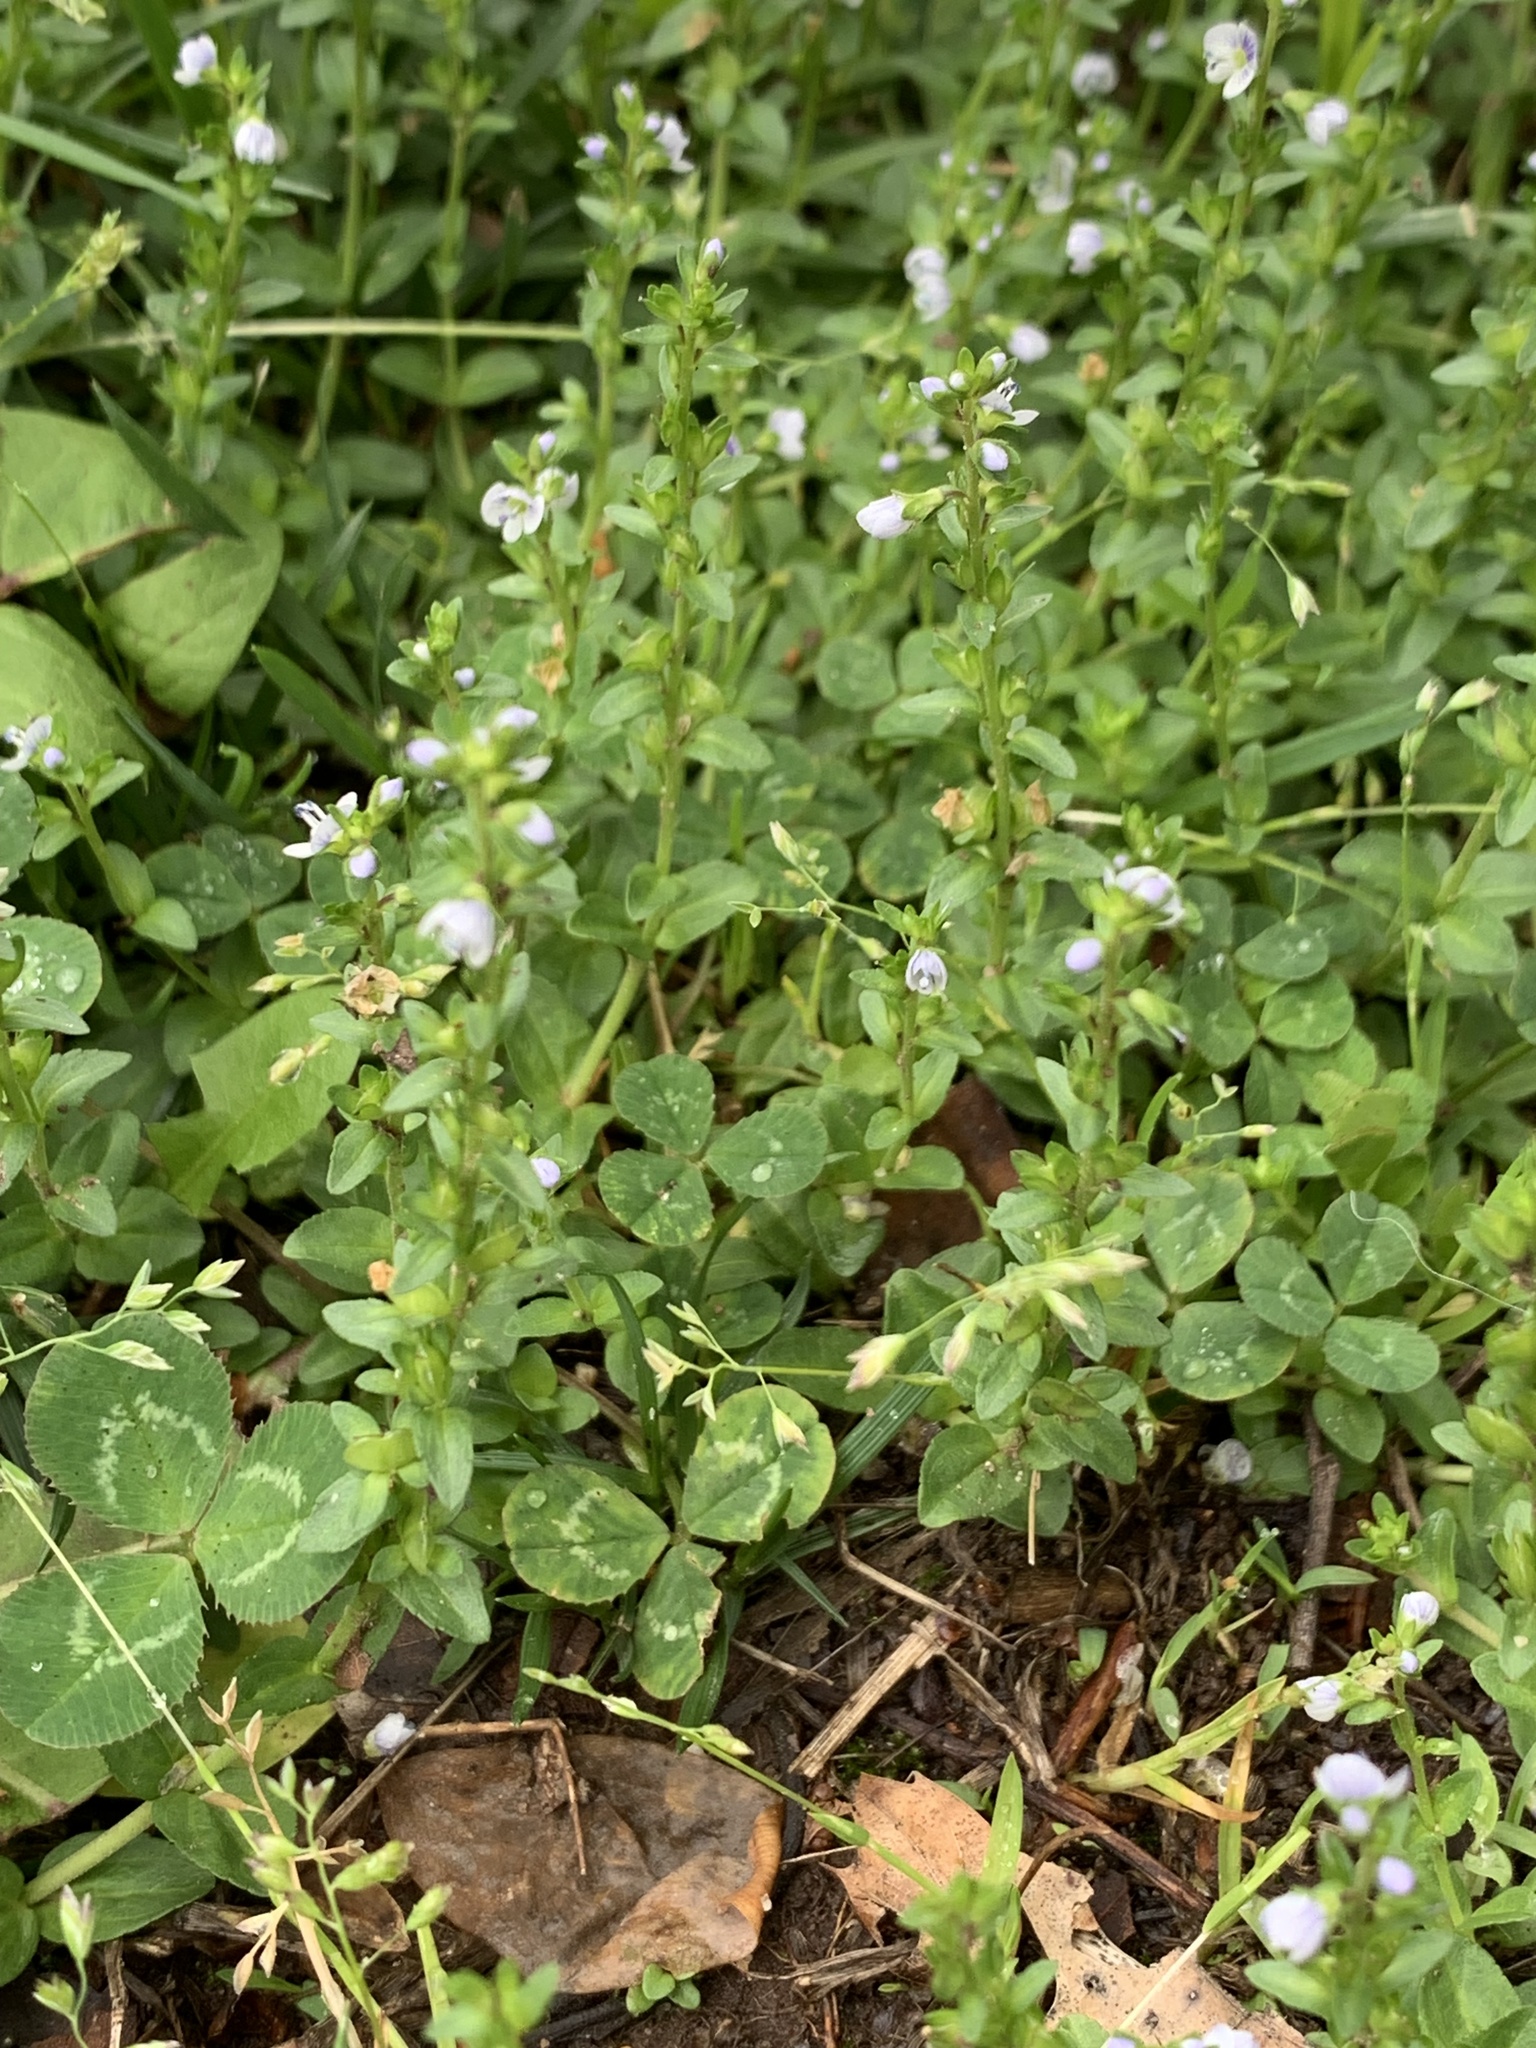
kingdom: Plantae
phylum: Tracheophyta
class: Magnoliopsida
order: Lamiales
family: Plantaginaceae
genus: Veronica
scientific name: Veronica serpyllifolia
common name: Thyme-leaved speedwell
